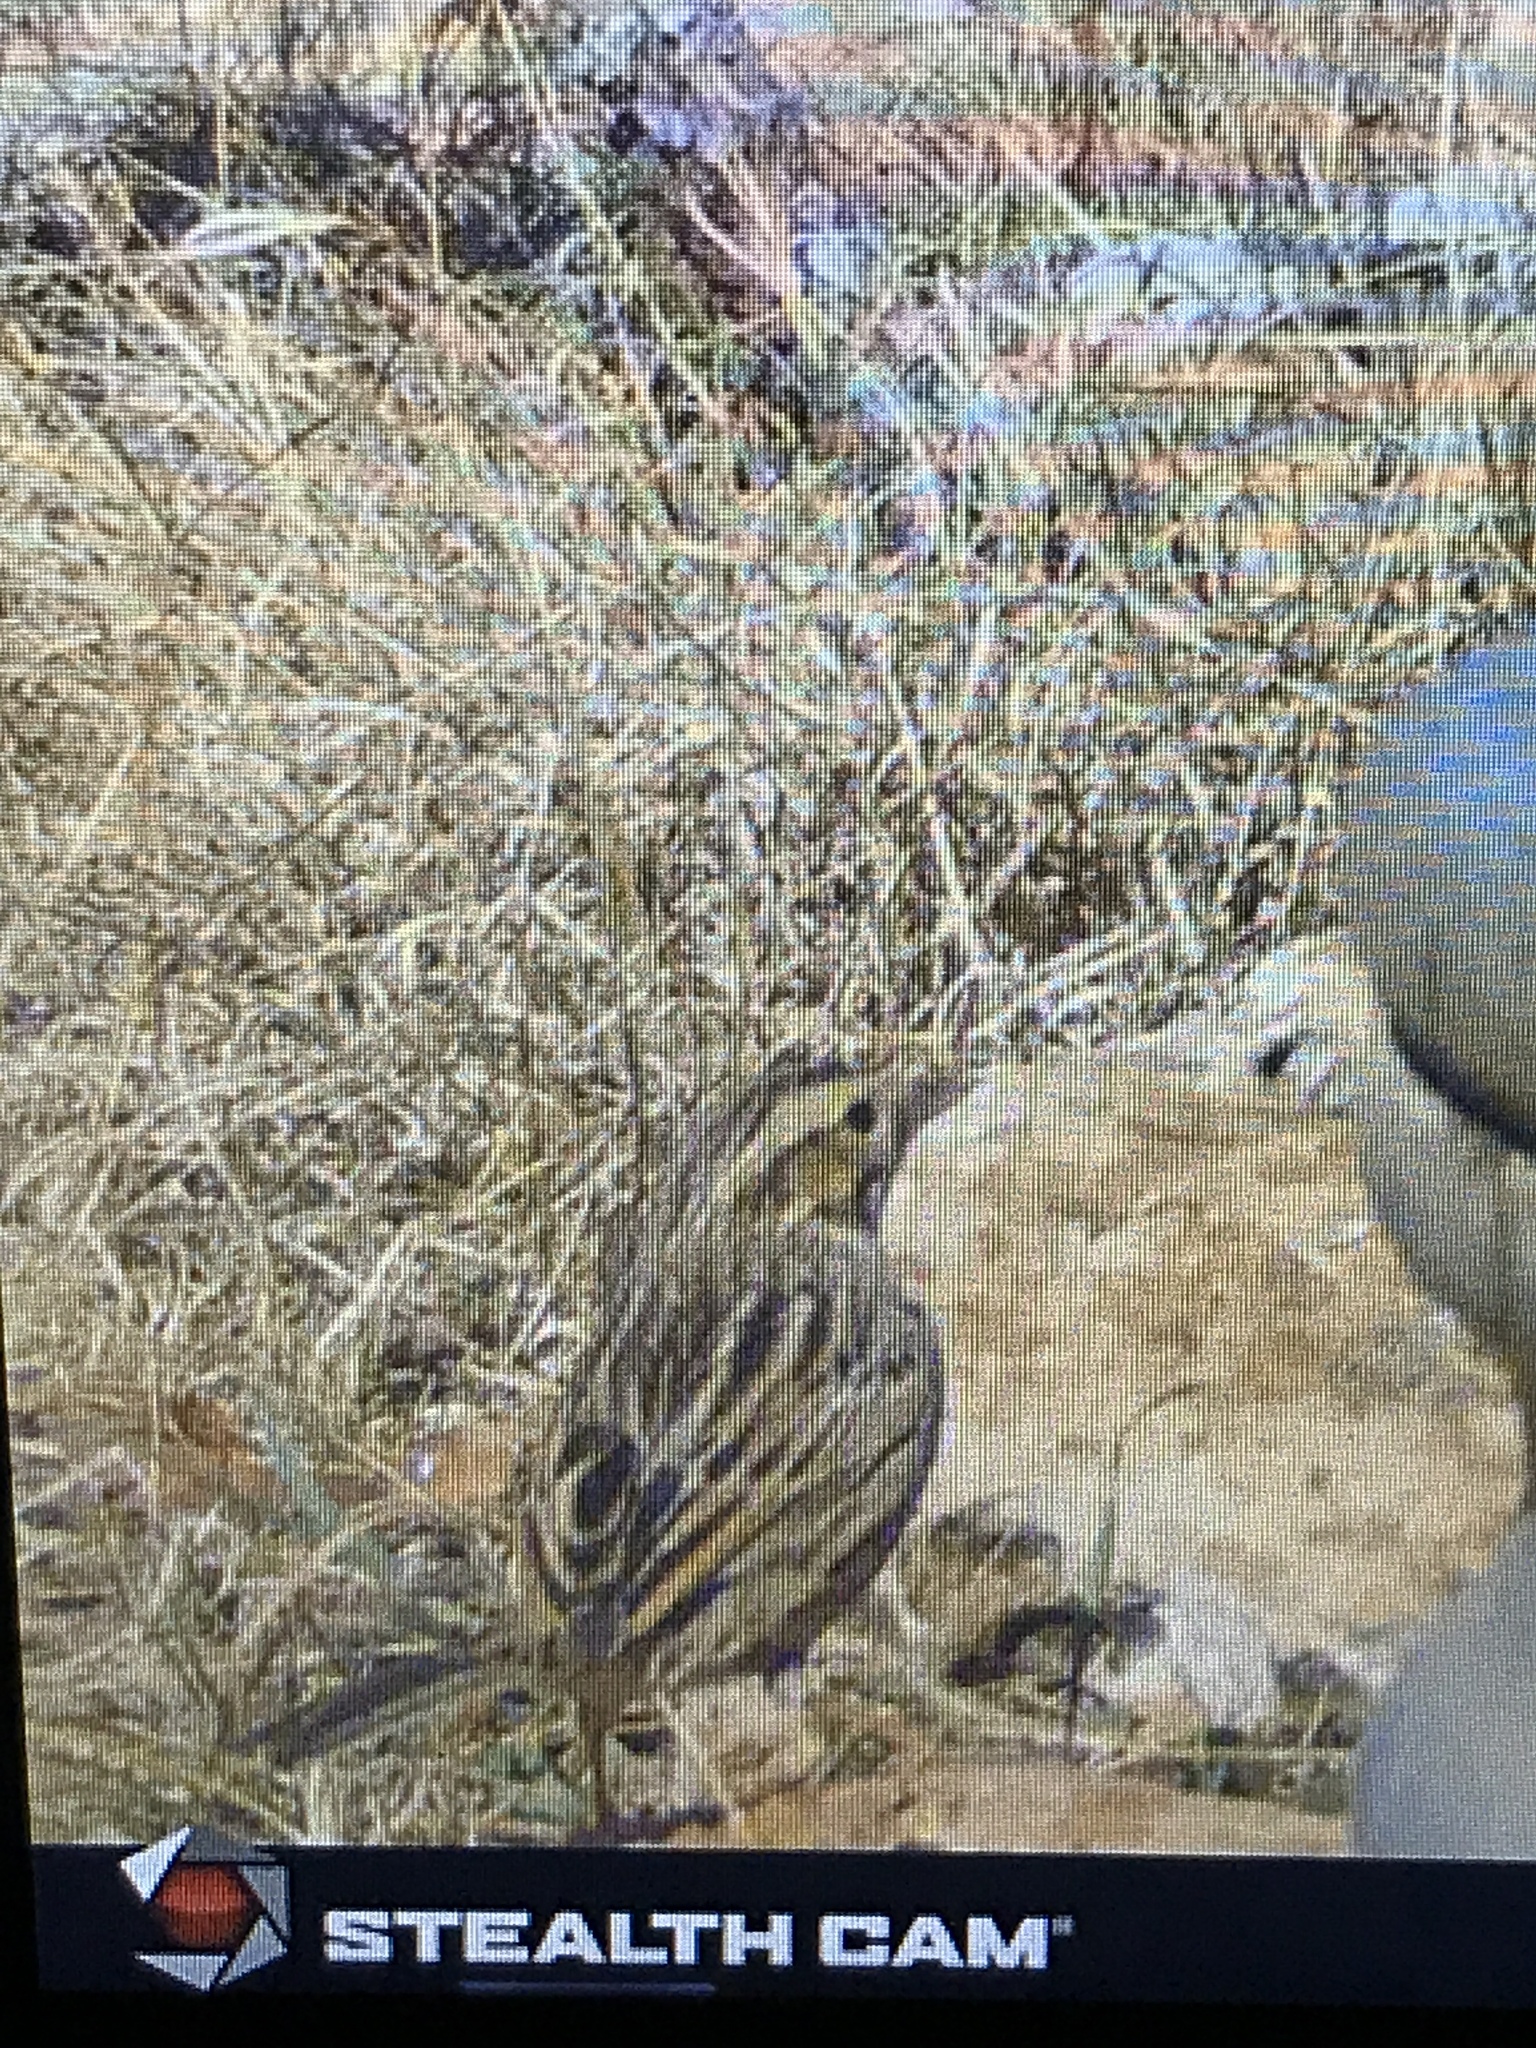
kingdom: Animalia
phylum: Chordata
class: Aves
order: Passeriformes
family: Passerellidae
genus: Passerculus
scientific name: Passerculus sandwichensis
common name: Savannah sparrow
